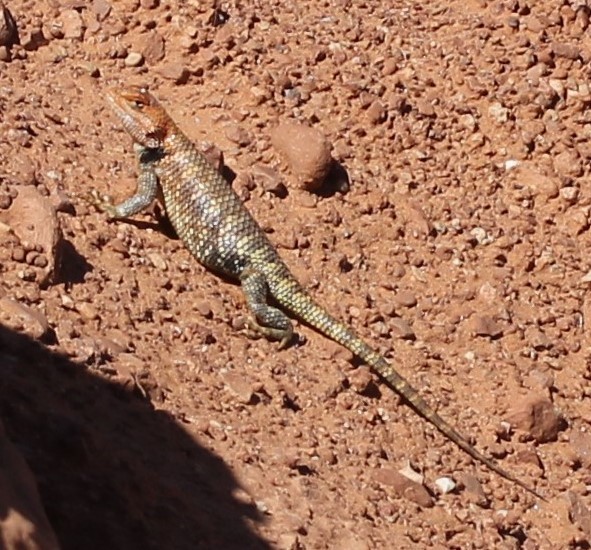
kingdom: Animalia
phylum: Chordata
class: Squamata
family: Phrynosomatidae
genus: Sceloporus
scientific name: Sceloporus magister
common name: Desert spiny lizard
